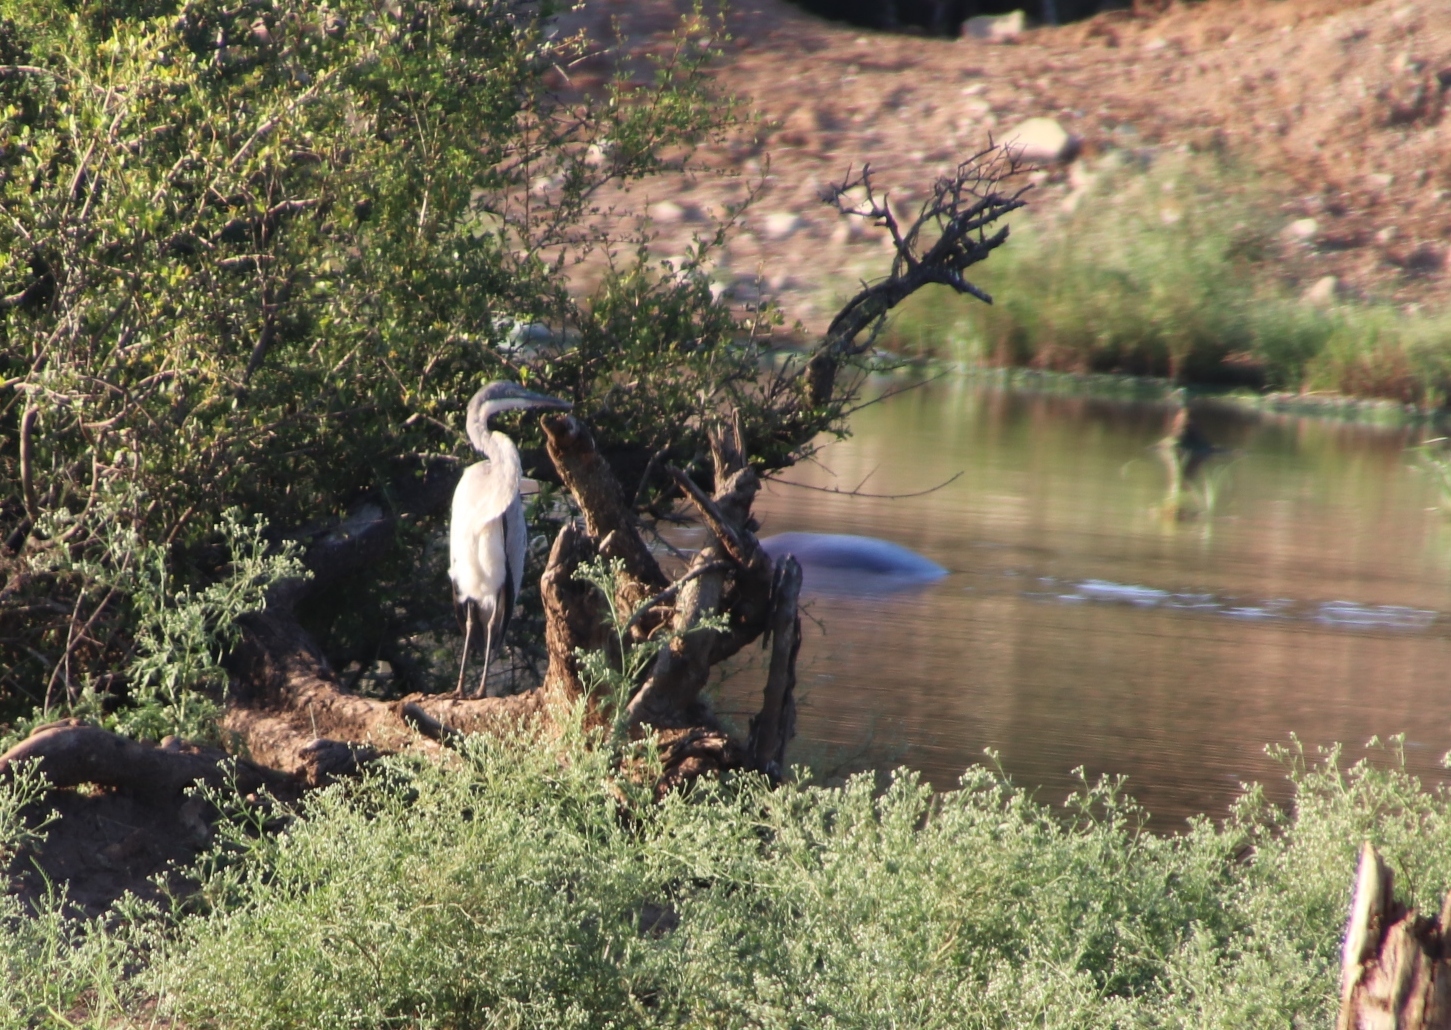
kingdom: Animalia
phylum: Chordata
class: Aves
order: Pelecaniformes
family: Ardeidae
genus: Ardea
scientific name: Ardea melanocephala
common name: Black-headed heron
